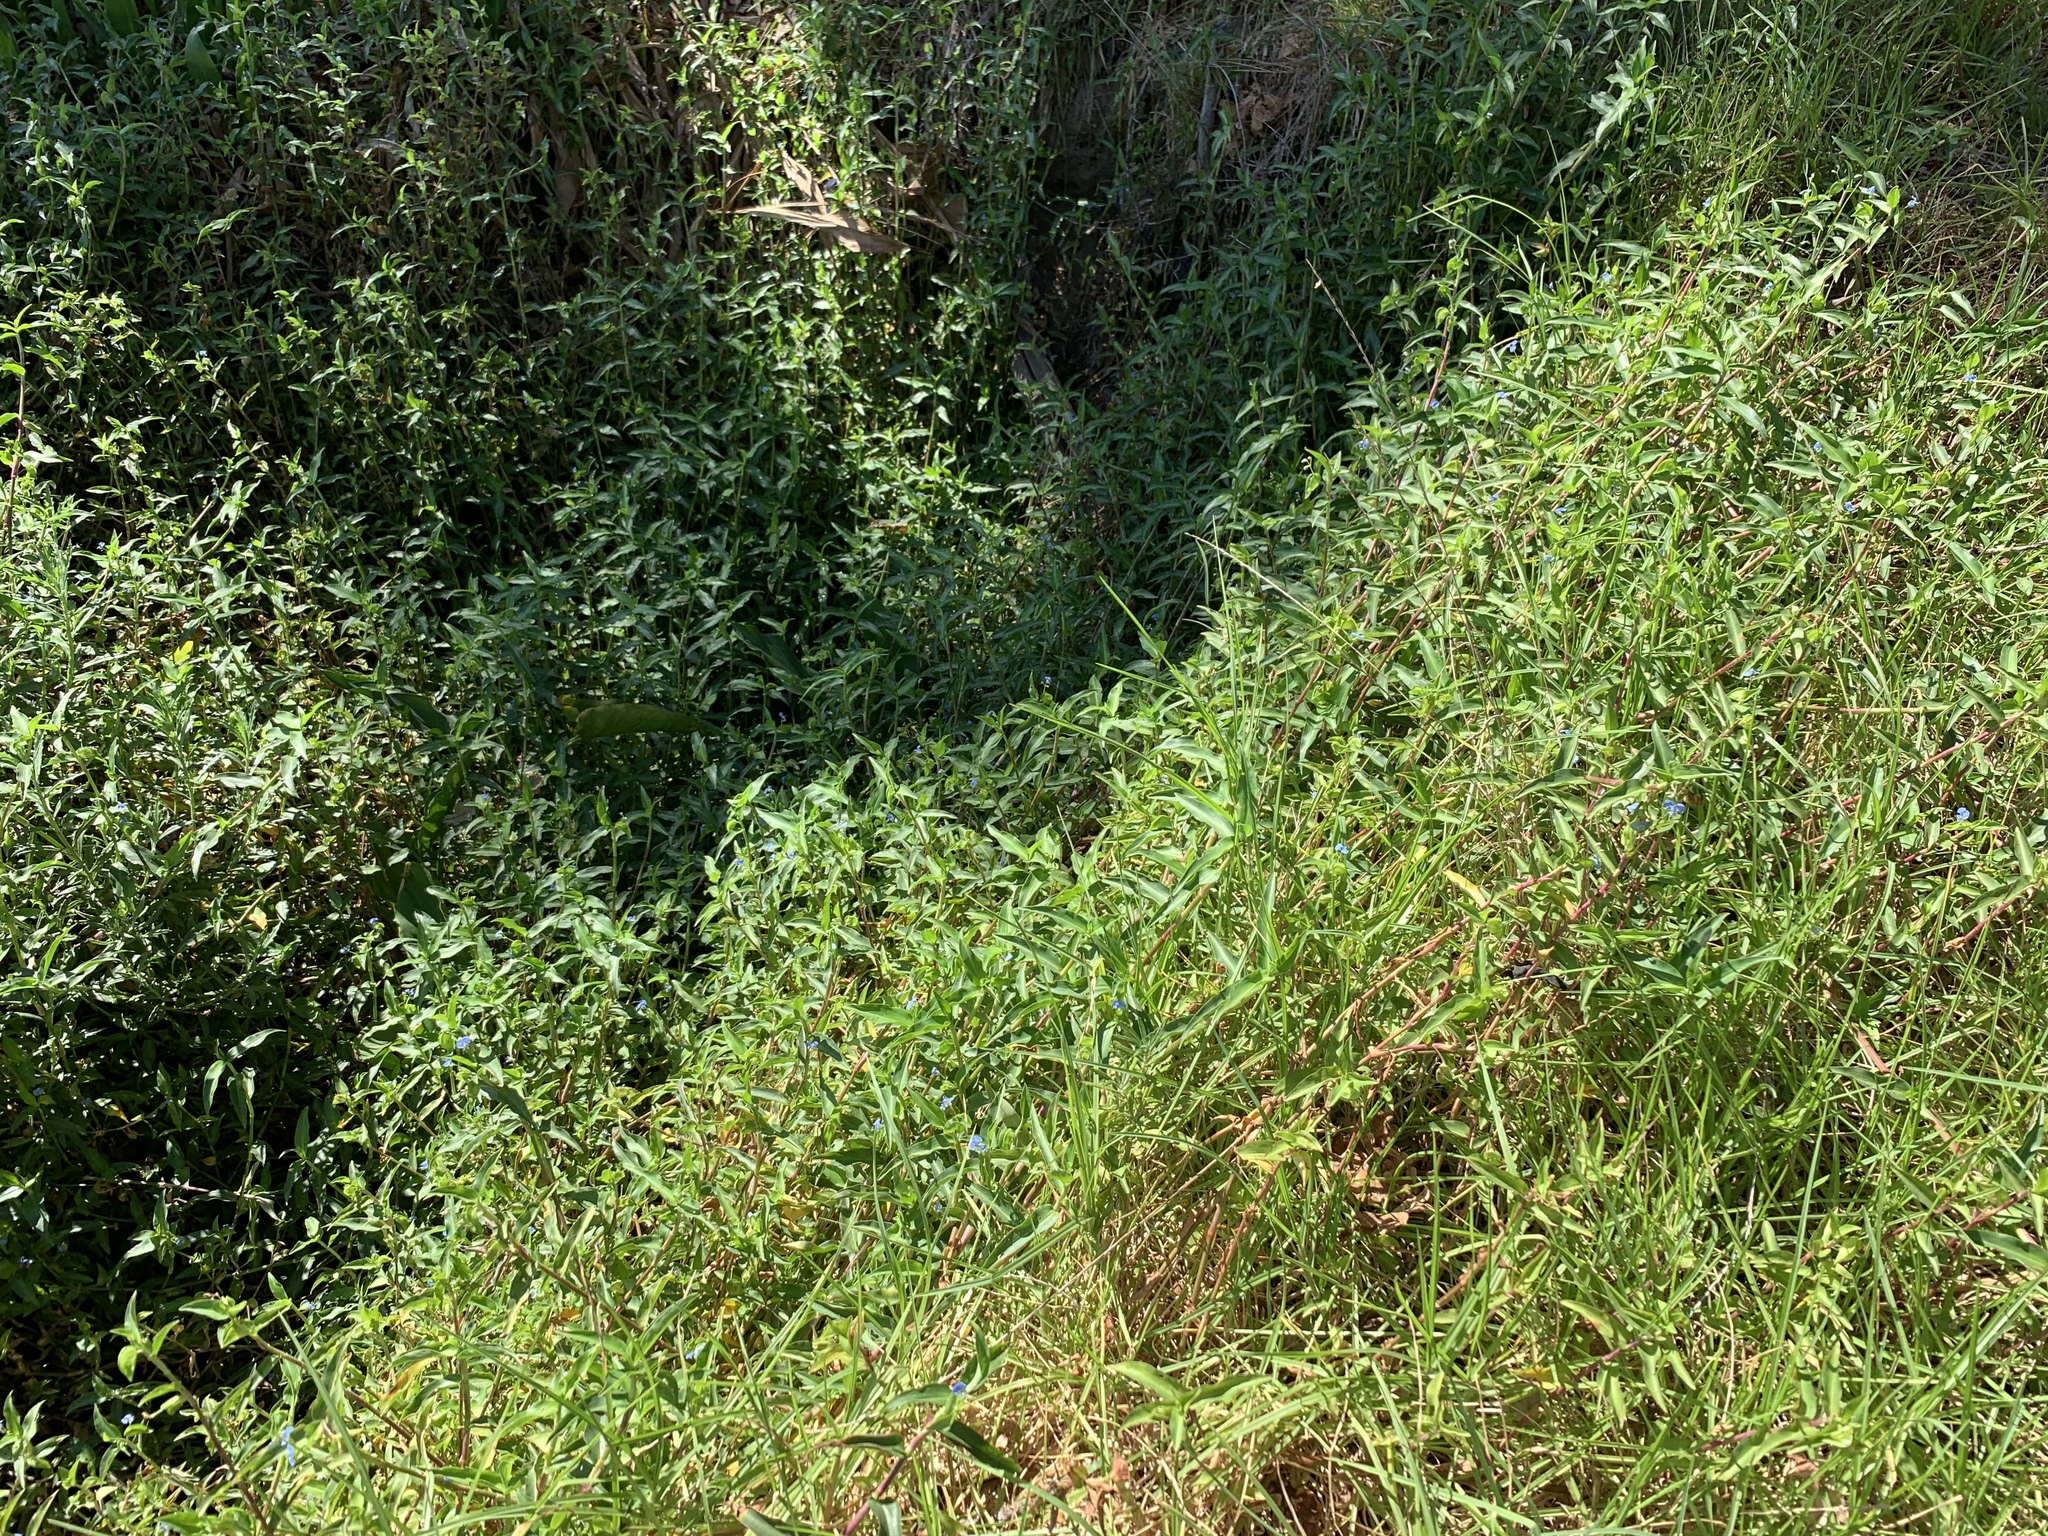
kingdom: Plantae
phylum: Tracheophyta
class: Liliopsida
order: Commelinales
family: Commelinaceae
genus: Commelina
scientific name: Commelina diffusa
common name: Climbing dayflower
